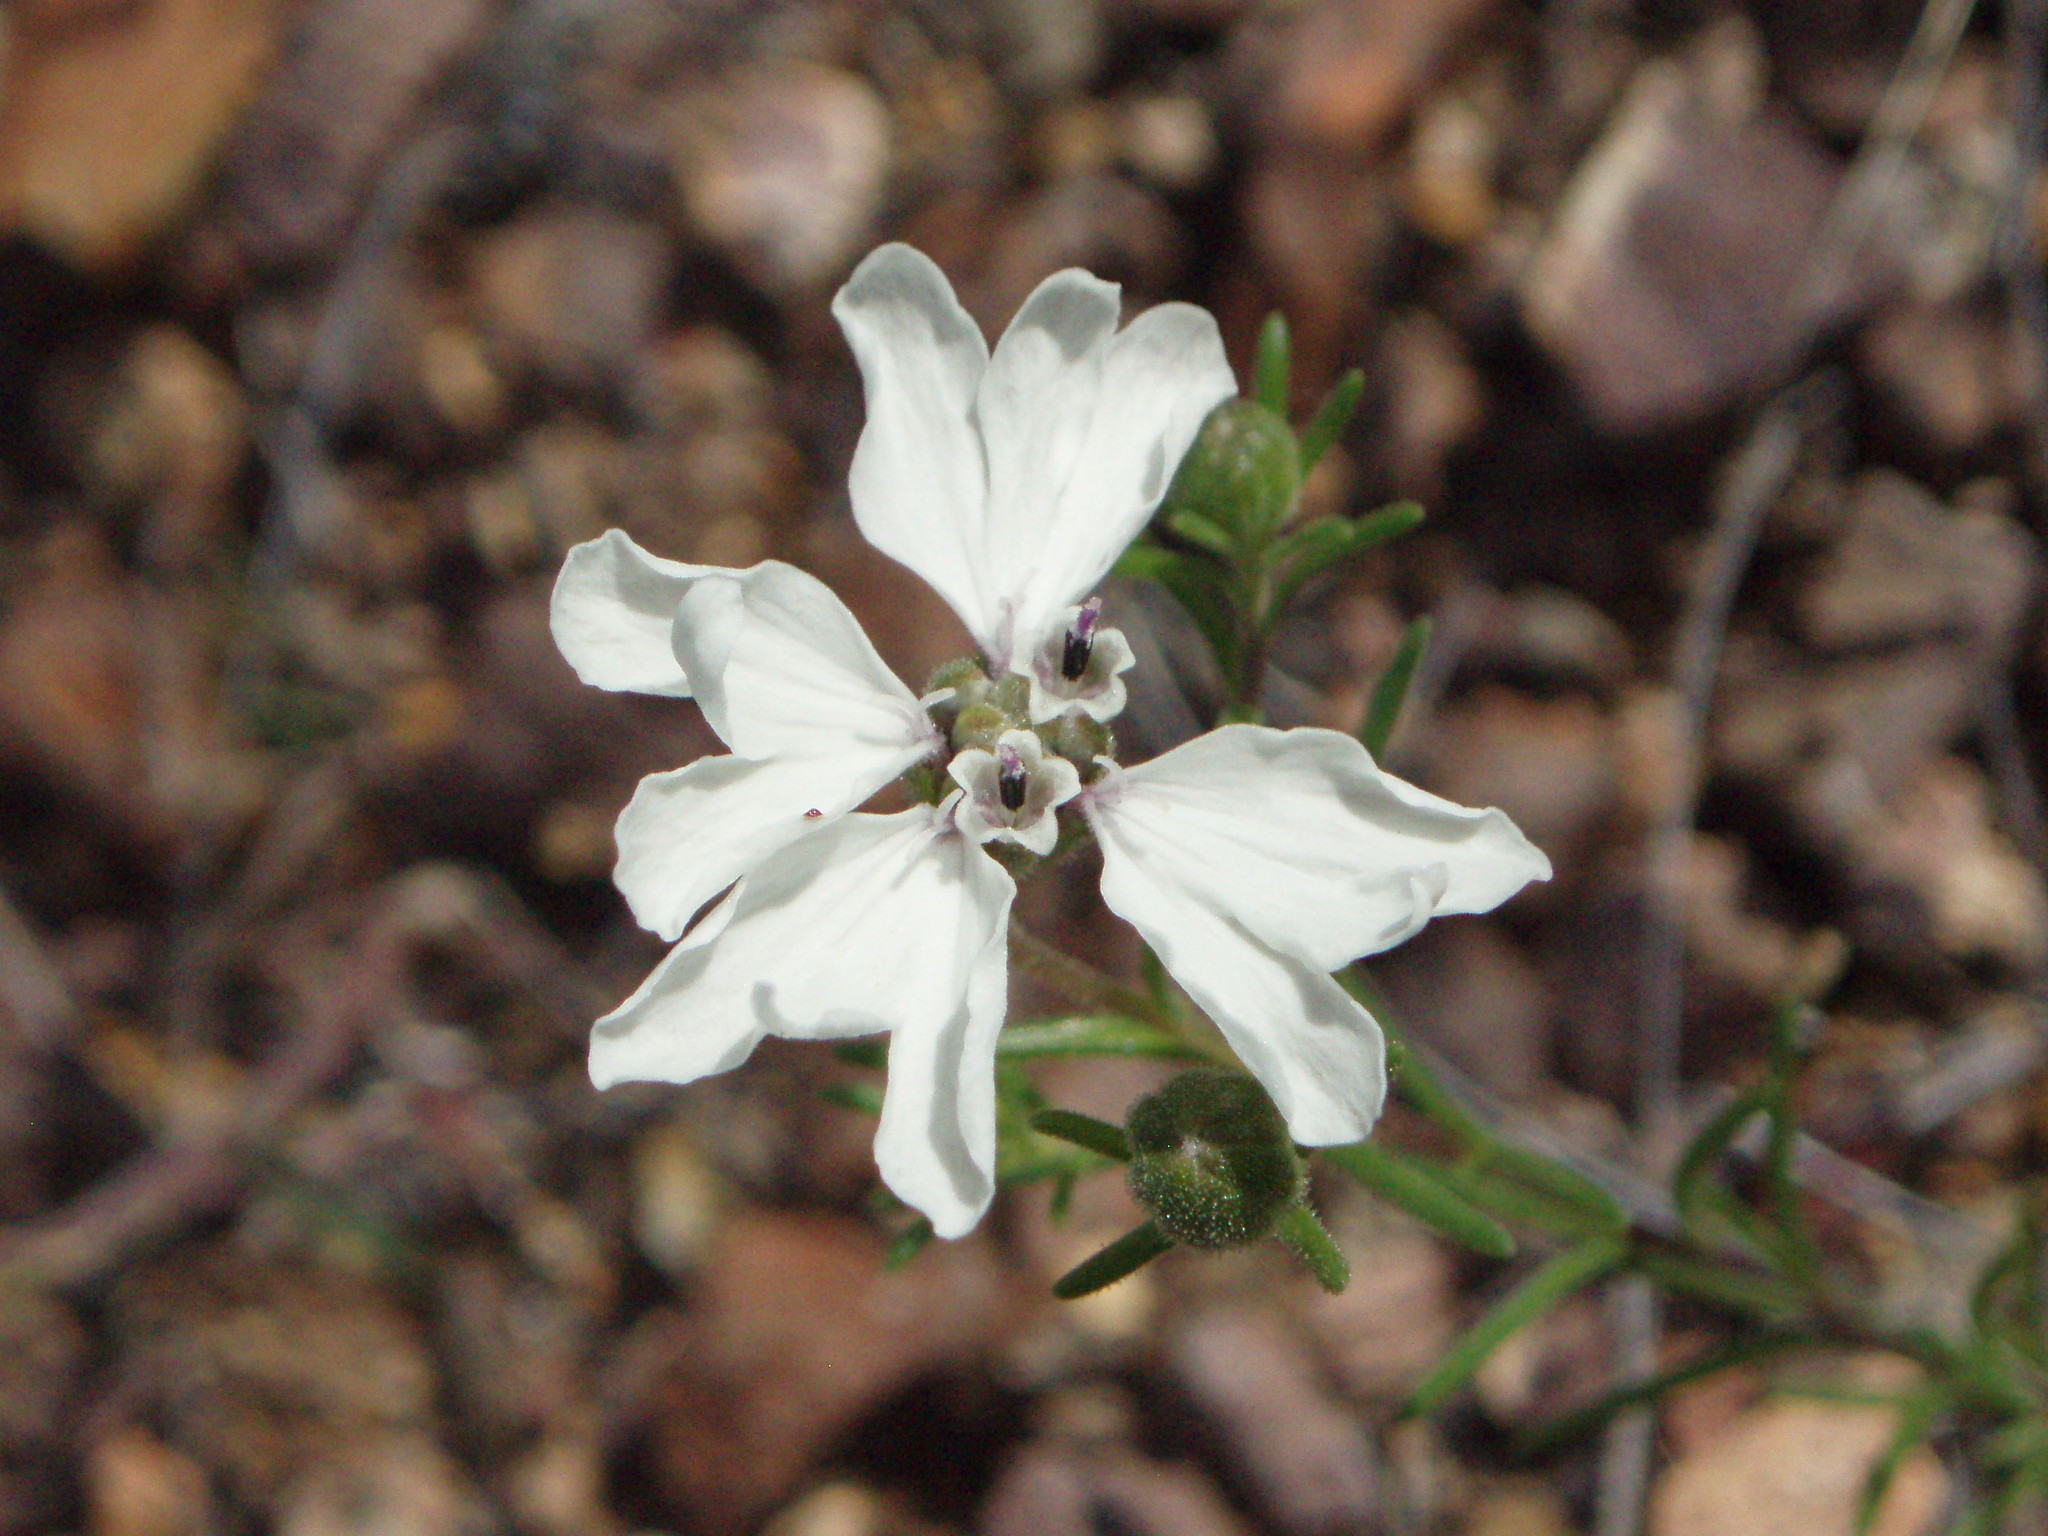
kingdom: Plantae
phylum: Tracheophyta
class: Magnoliopsida
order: Asterales
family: Asteraceae
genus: Blepharipappus
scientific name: Blepharipappus scaber
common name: Rough blepharipappus
